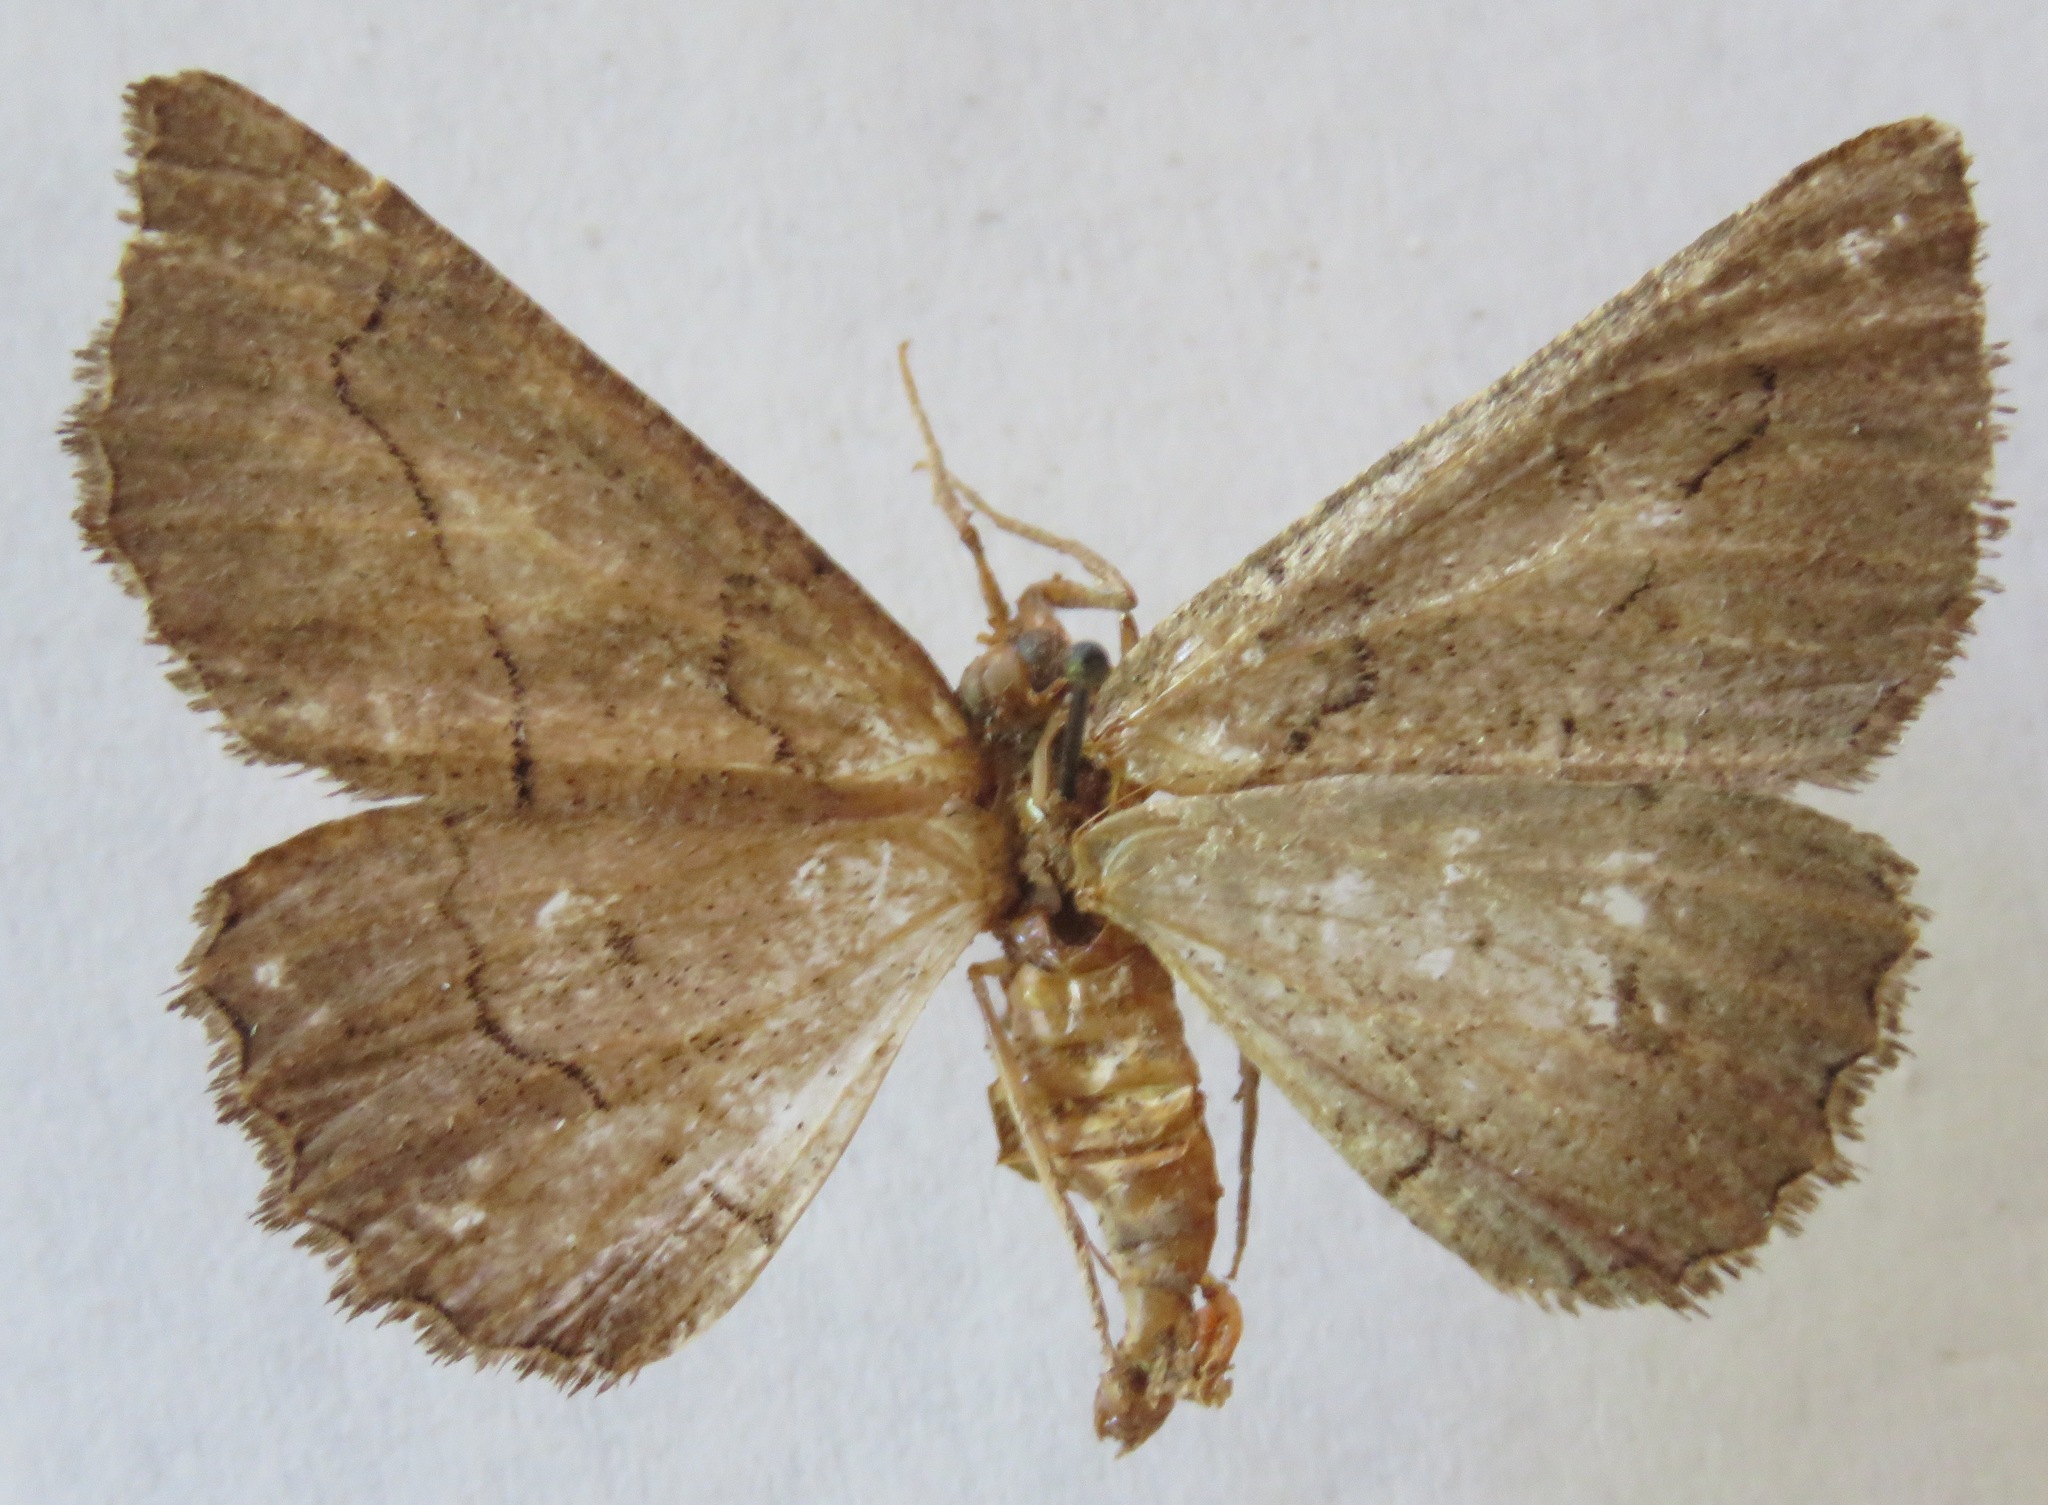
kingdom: Animalia
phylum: Arthropoda
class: Insecta
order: Lepidoptera
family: Geometridae
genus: Nychiodes
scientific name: Nychiodes obscuraria
